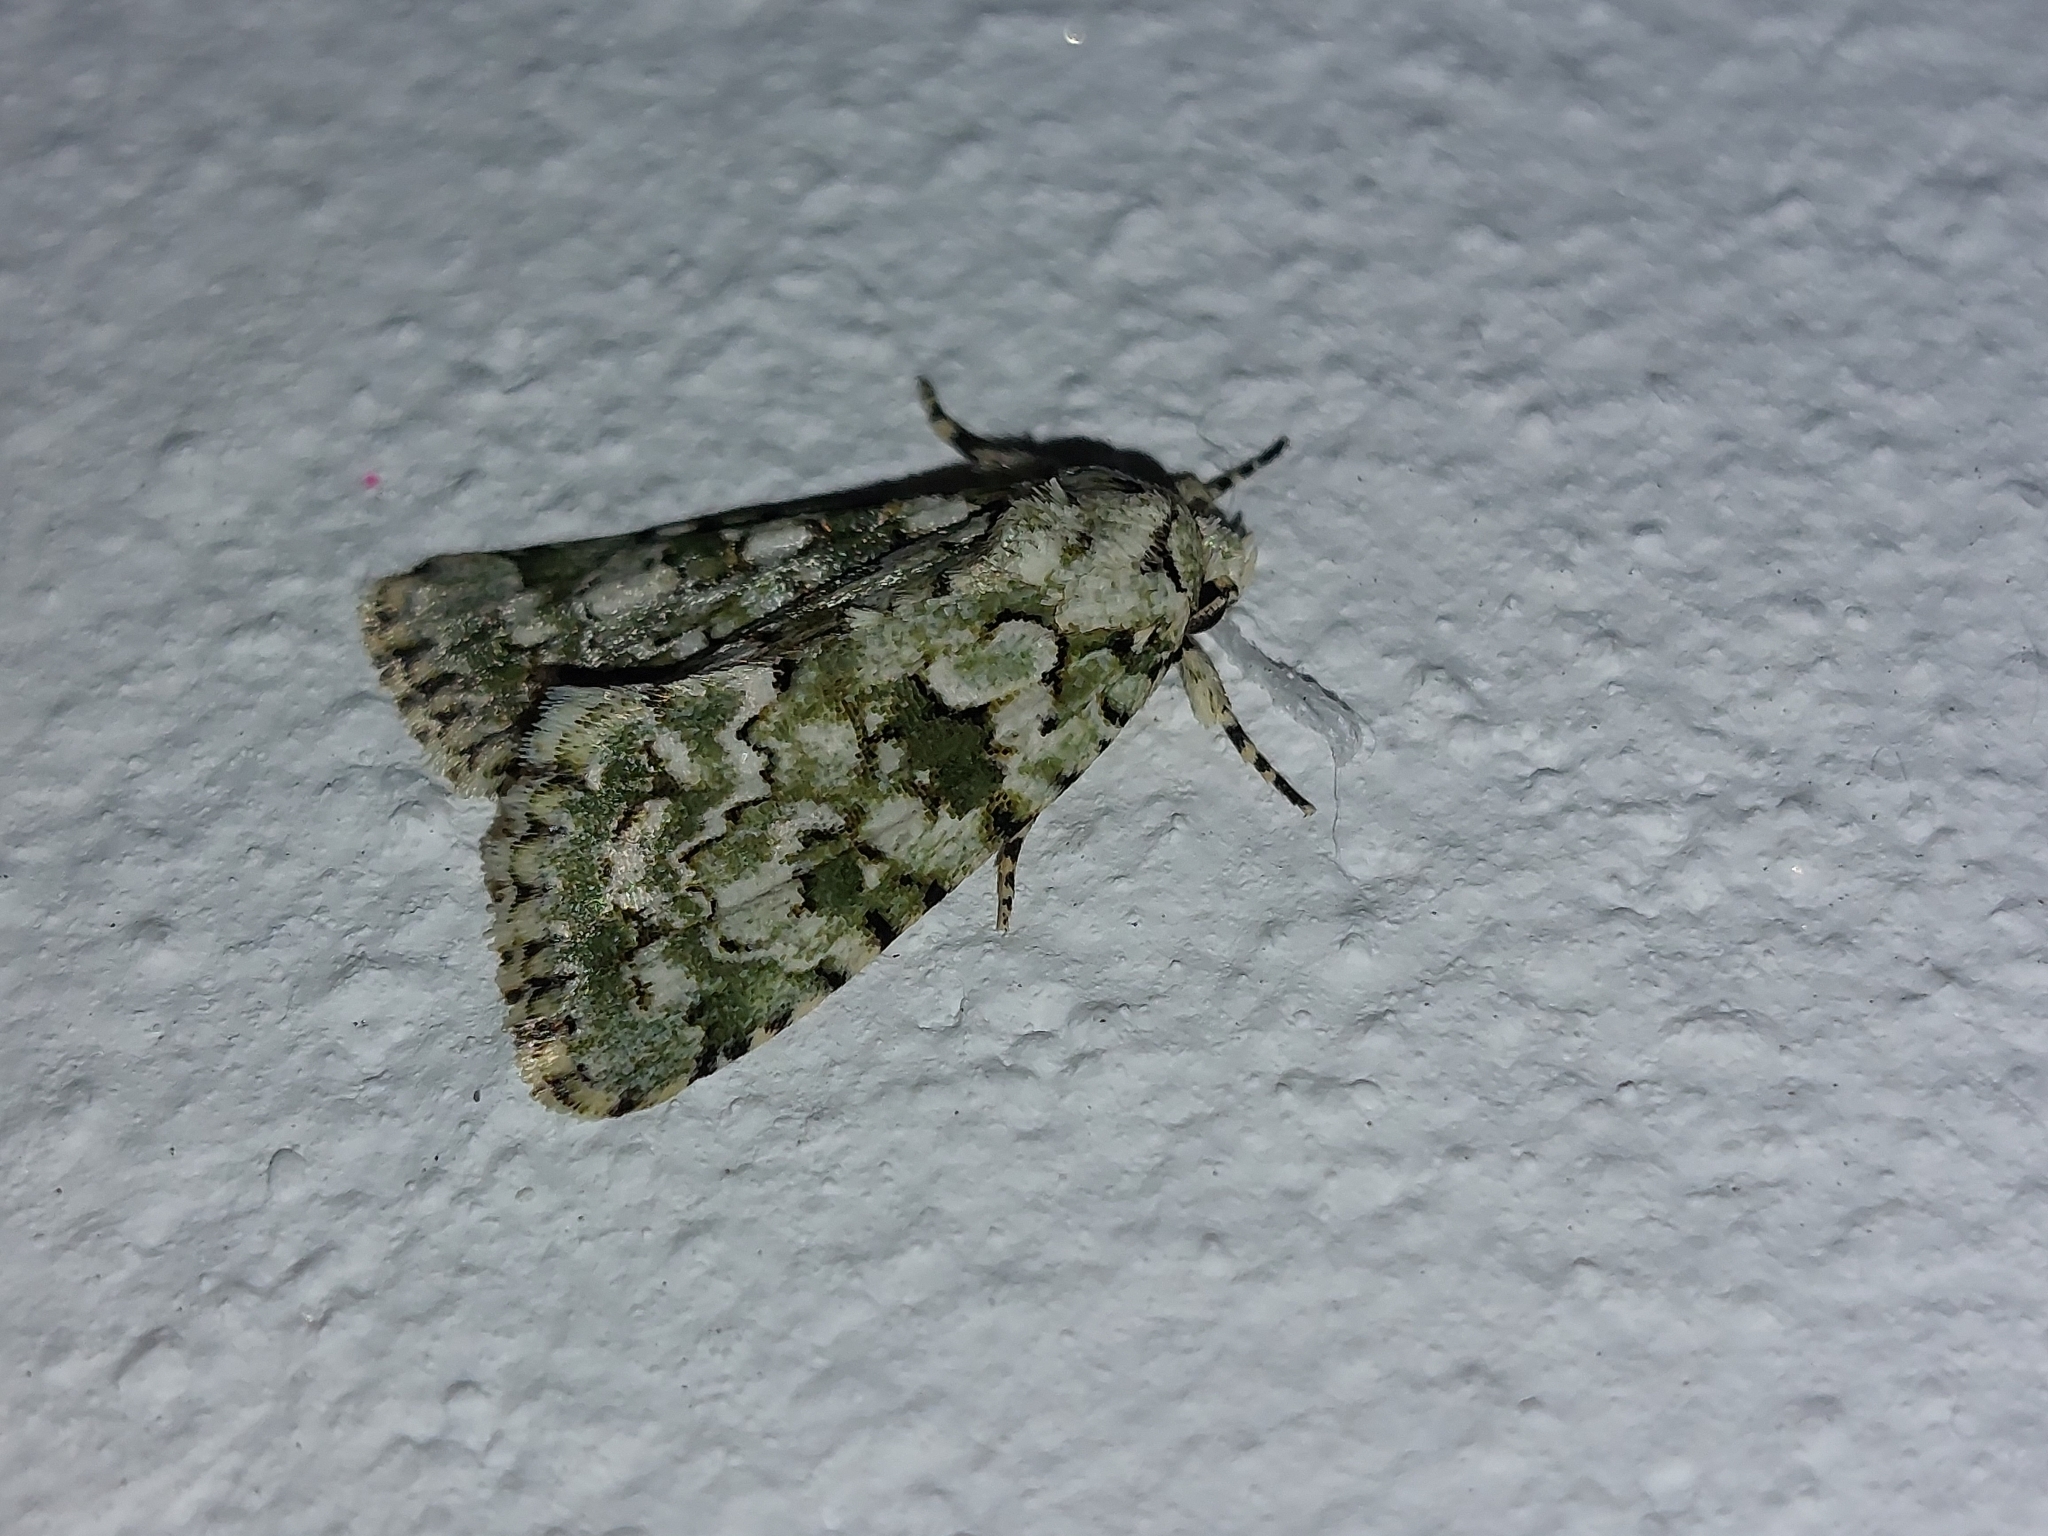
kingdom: Animalia
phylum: Arthropoda
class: Insecta
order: Lepidoptera
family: Noctuidae
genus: Nyctobrya
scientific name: Nyctobrya muralis
